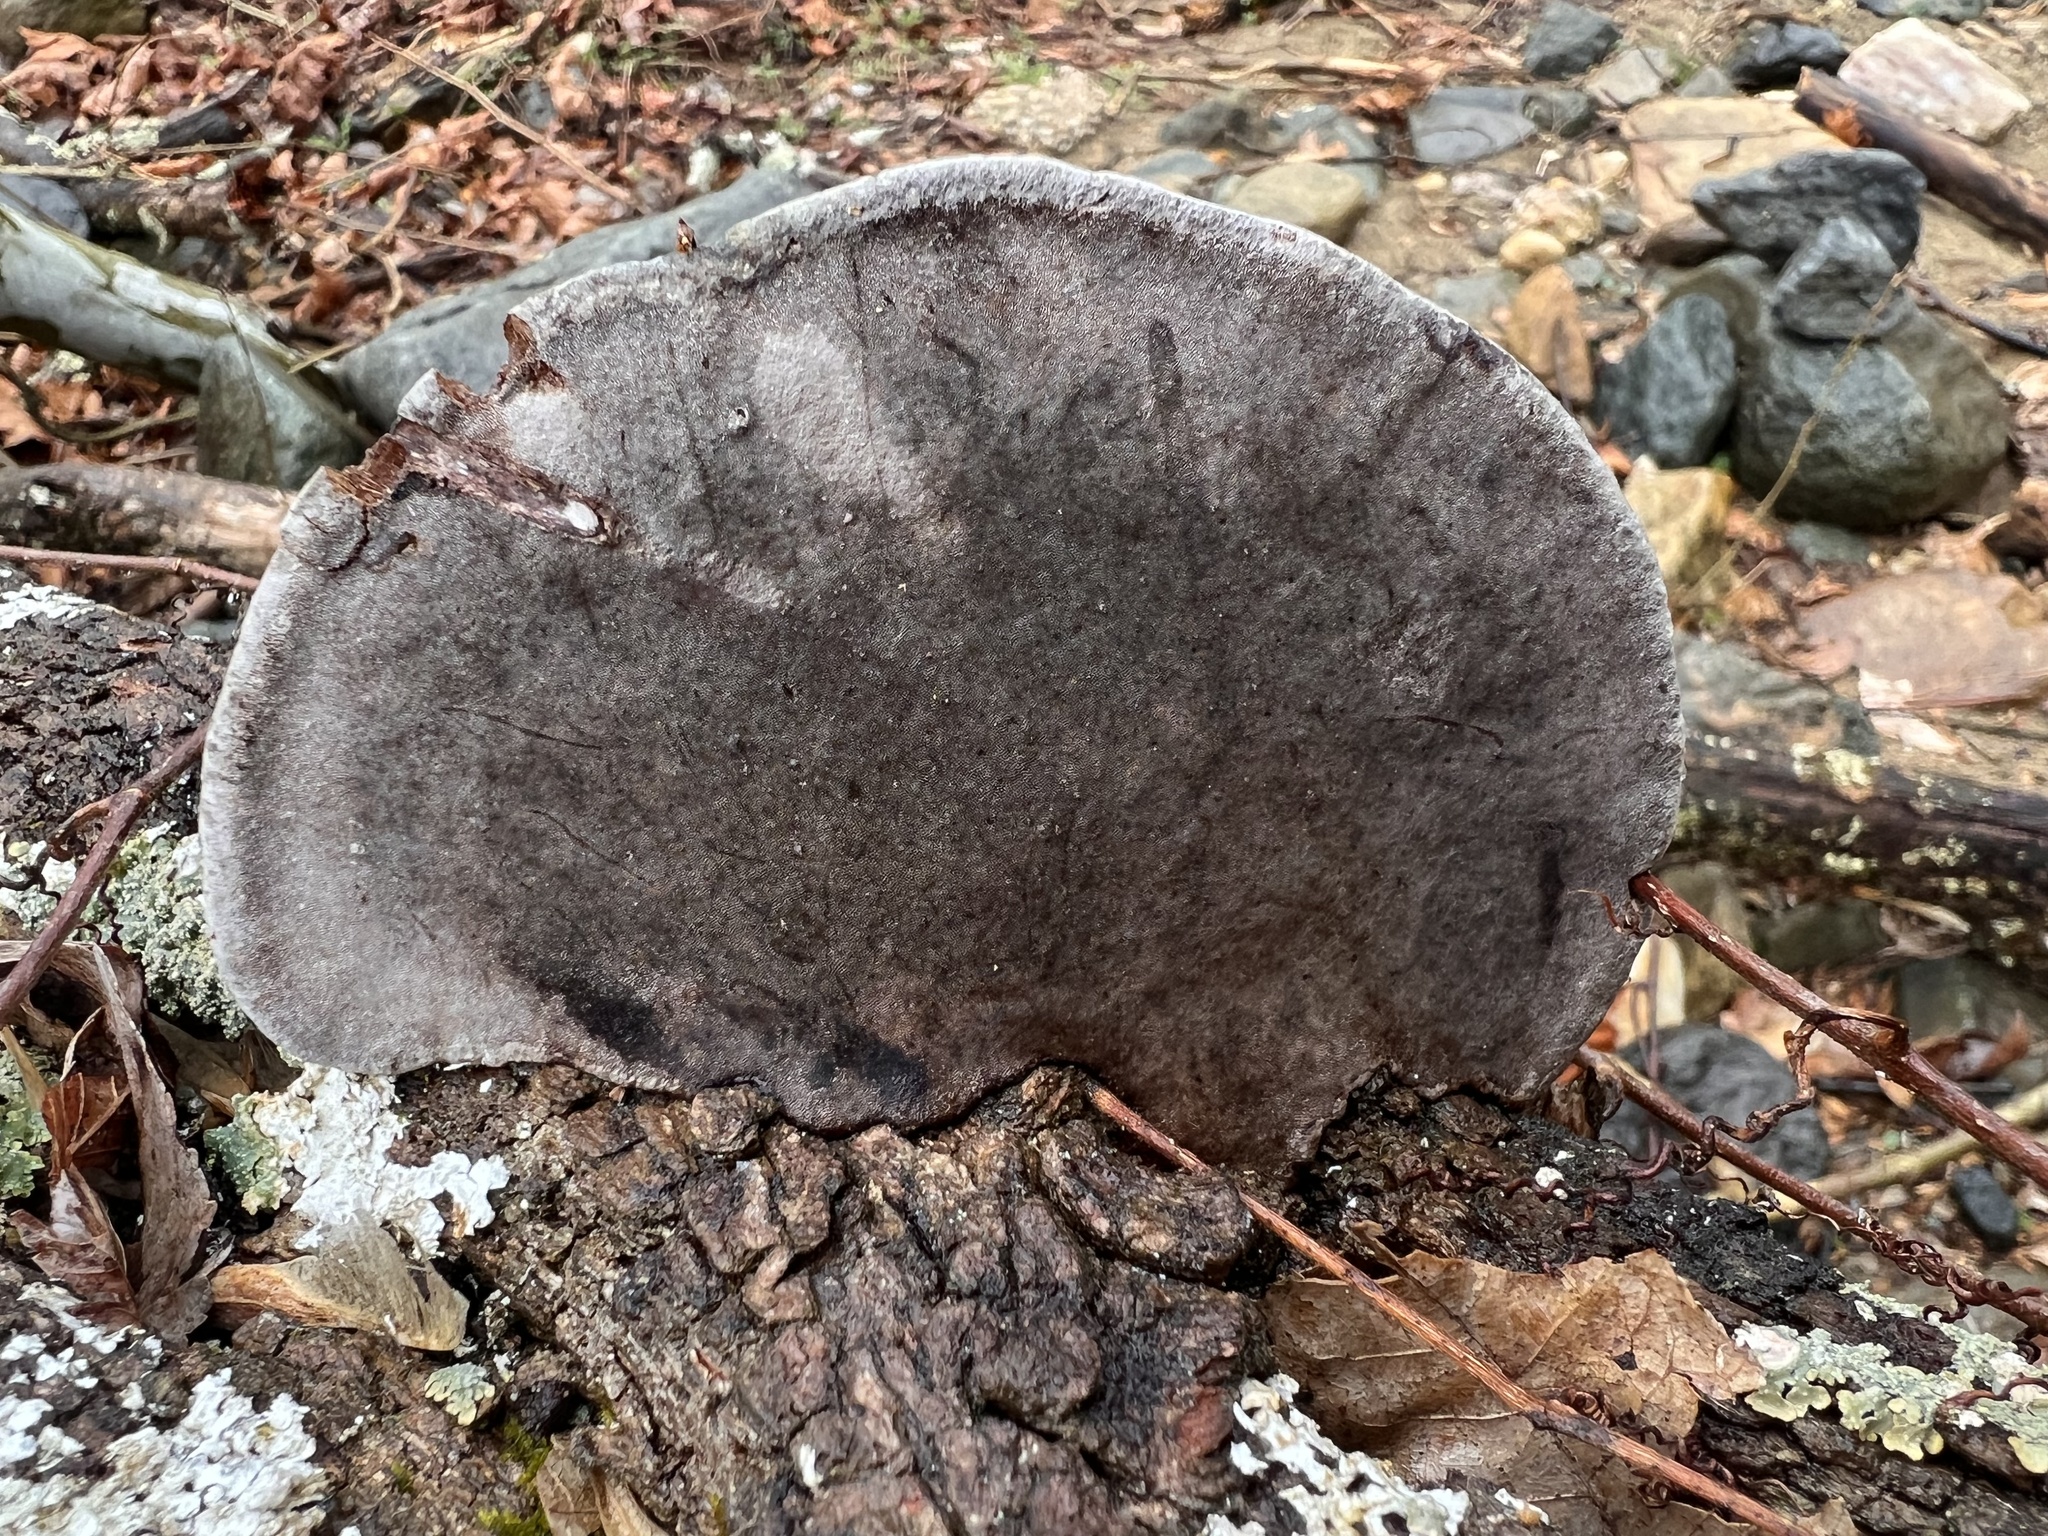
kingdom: Fungi
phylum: Basidiomycota
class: Agaricomycetes
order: Hymenochaetales
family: Hymenochaetaceae
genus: Phellinus
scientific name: Phellinus robiniae
